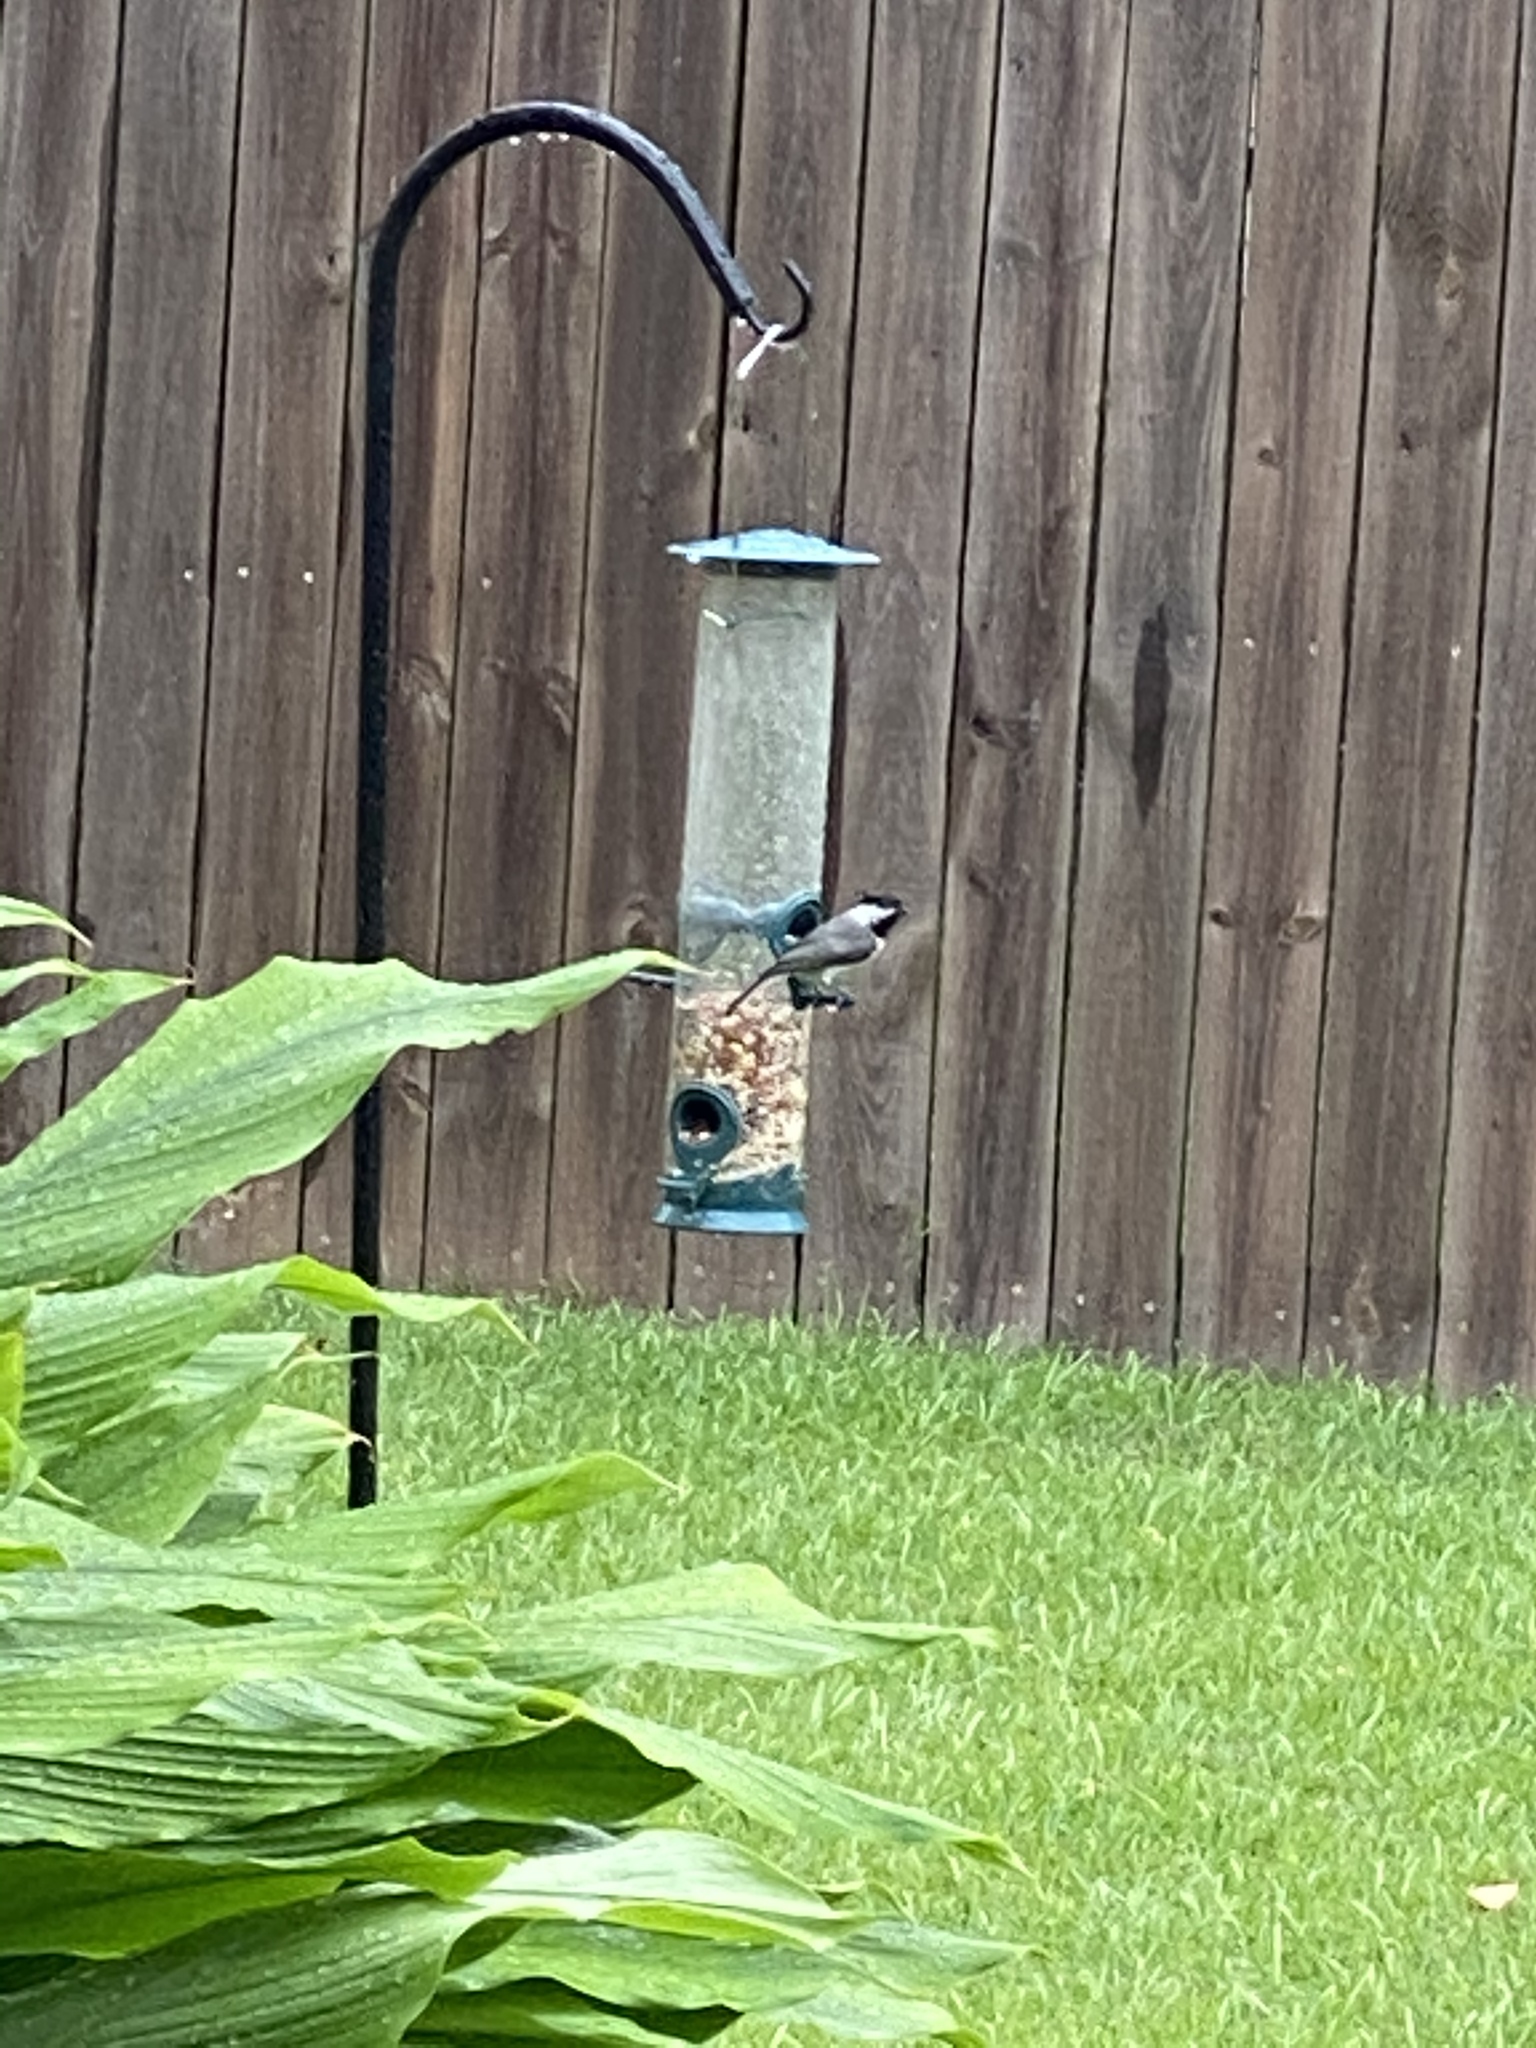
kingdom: Animalia
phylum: Chordata
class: Aves
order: Passeriformes
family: Paridae
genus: Poecile
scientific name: Poecile carolinensis
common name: Carolina chickadee
